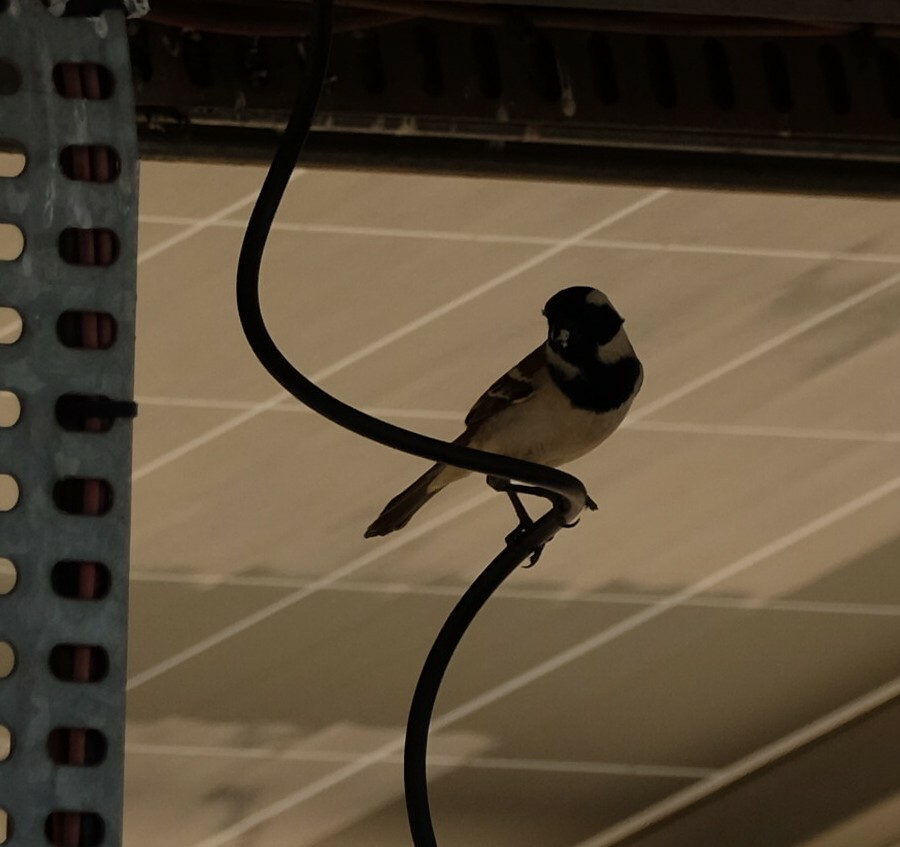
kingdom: Animalia
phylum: Chordata
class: Aves
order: Passeriformes
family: Passeridae
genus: Passer
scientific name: Passer melanurus
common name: Cape sparrow
